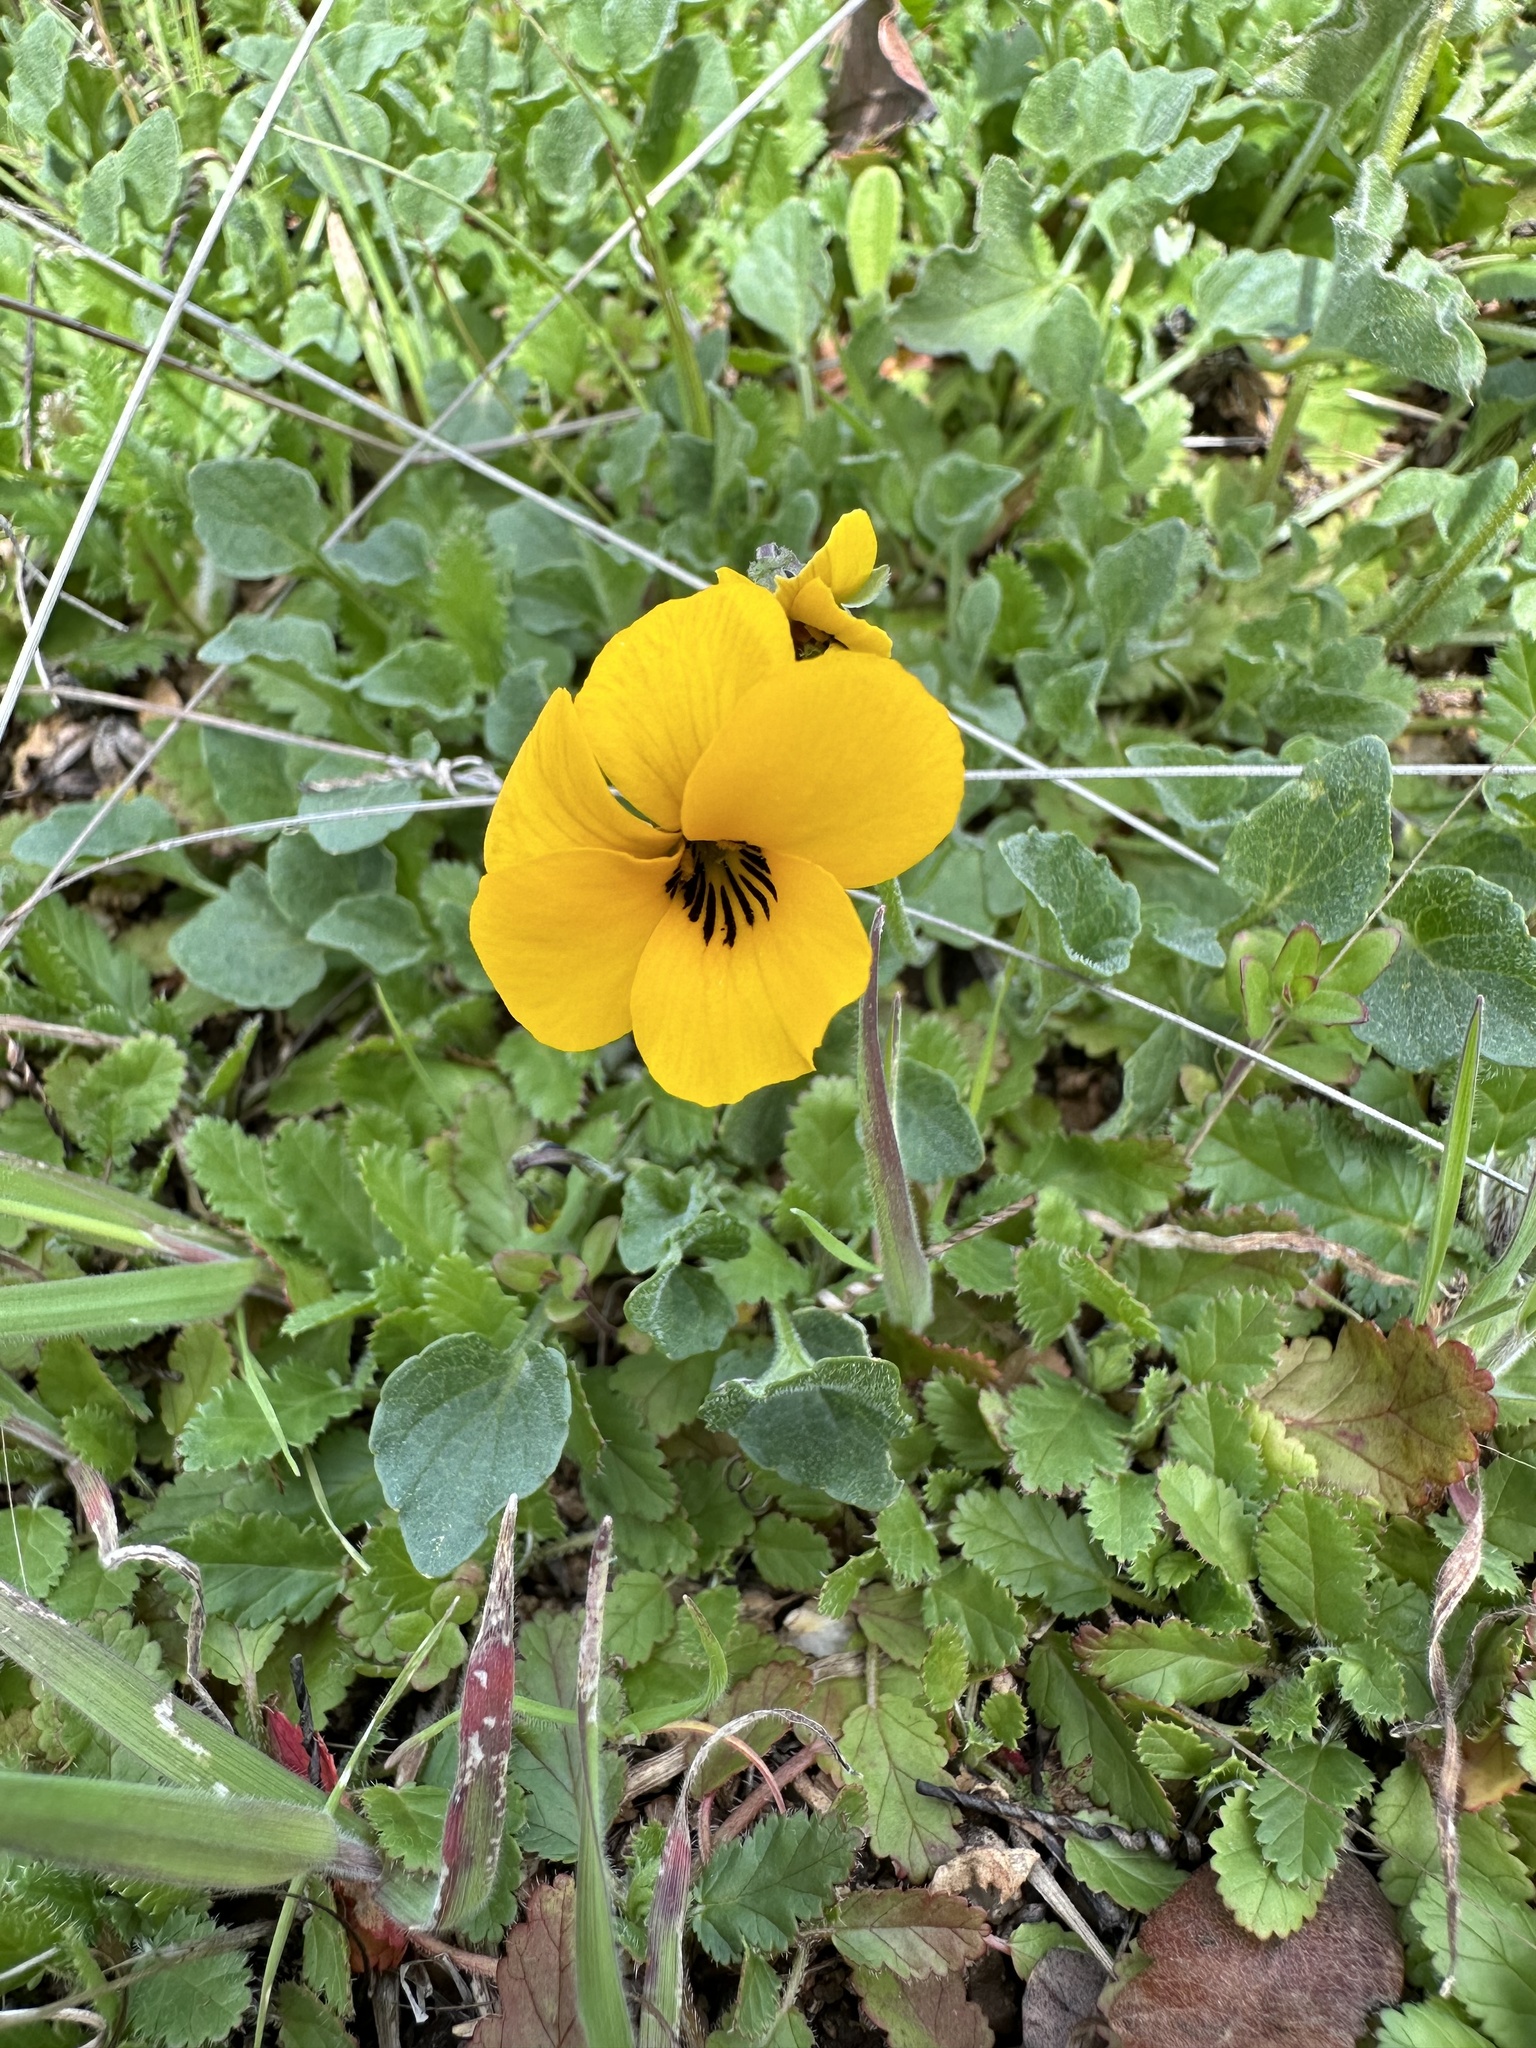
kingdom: Plantae
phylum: Tracheophyta
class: Magnoliopsida
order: Malpighiales
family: Violaceae
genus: Viola
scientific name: Viola pedunculata
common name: California golden violet
